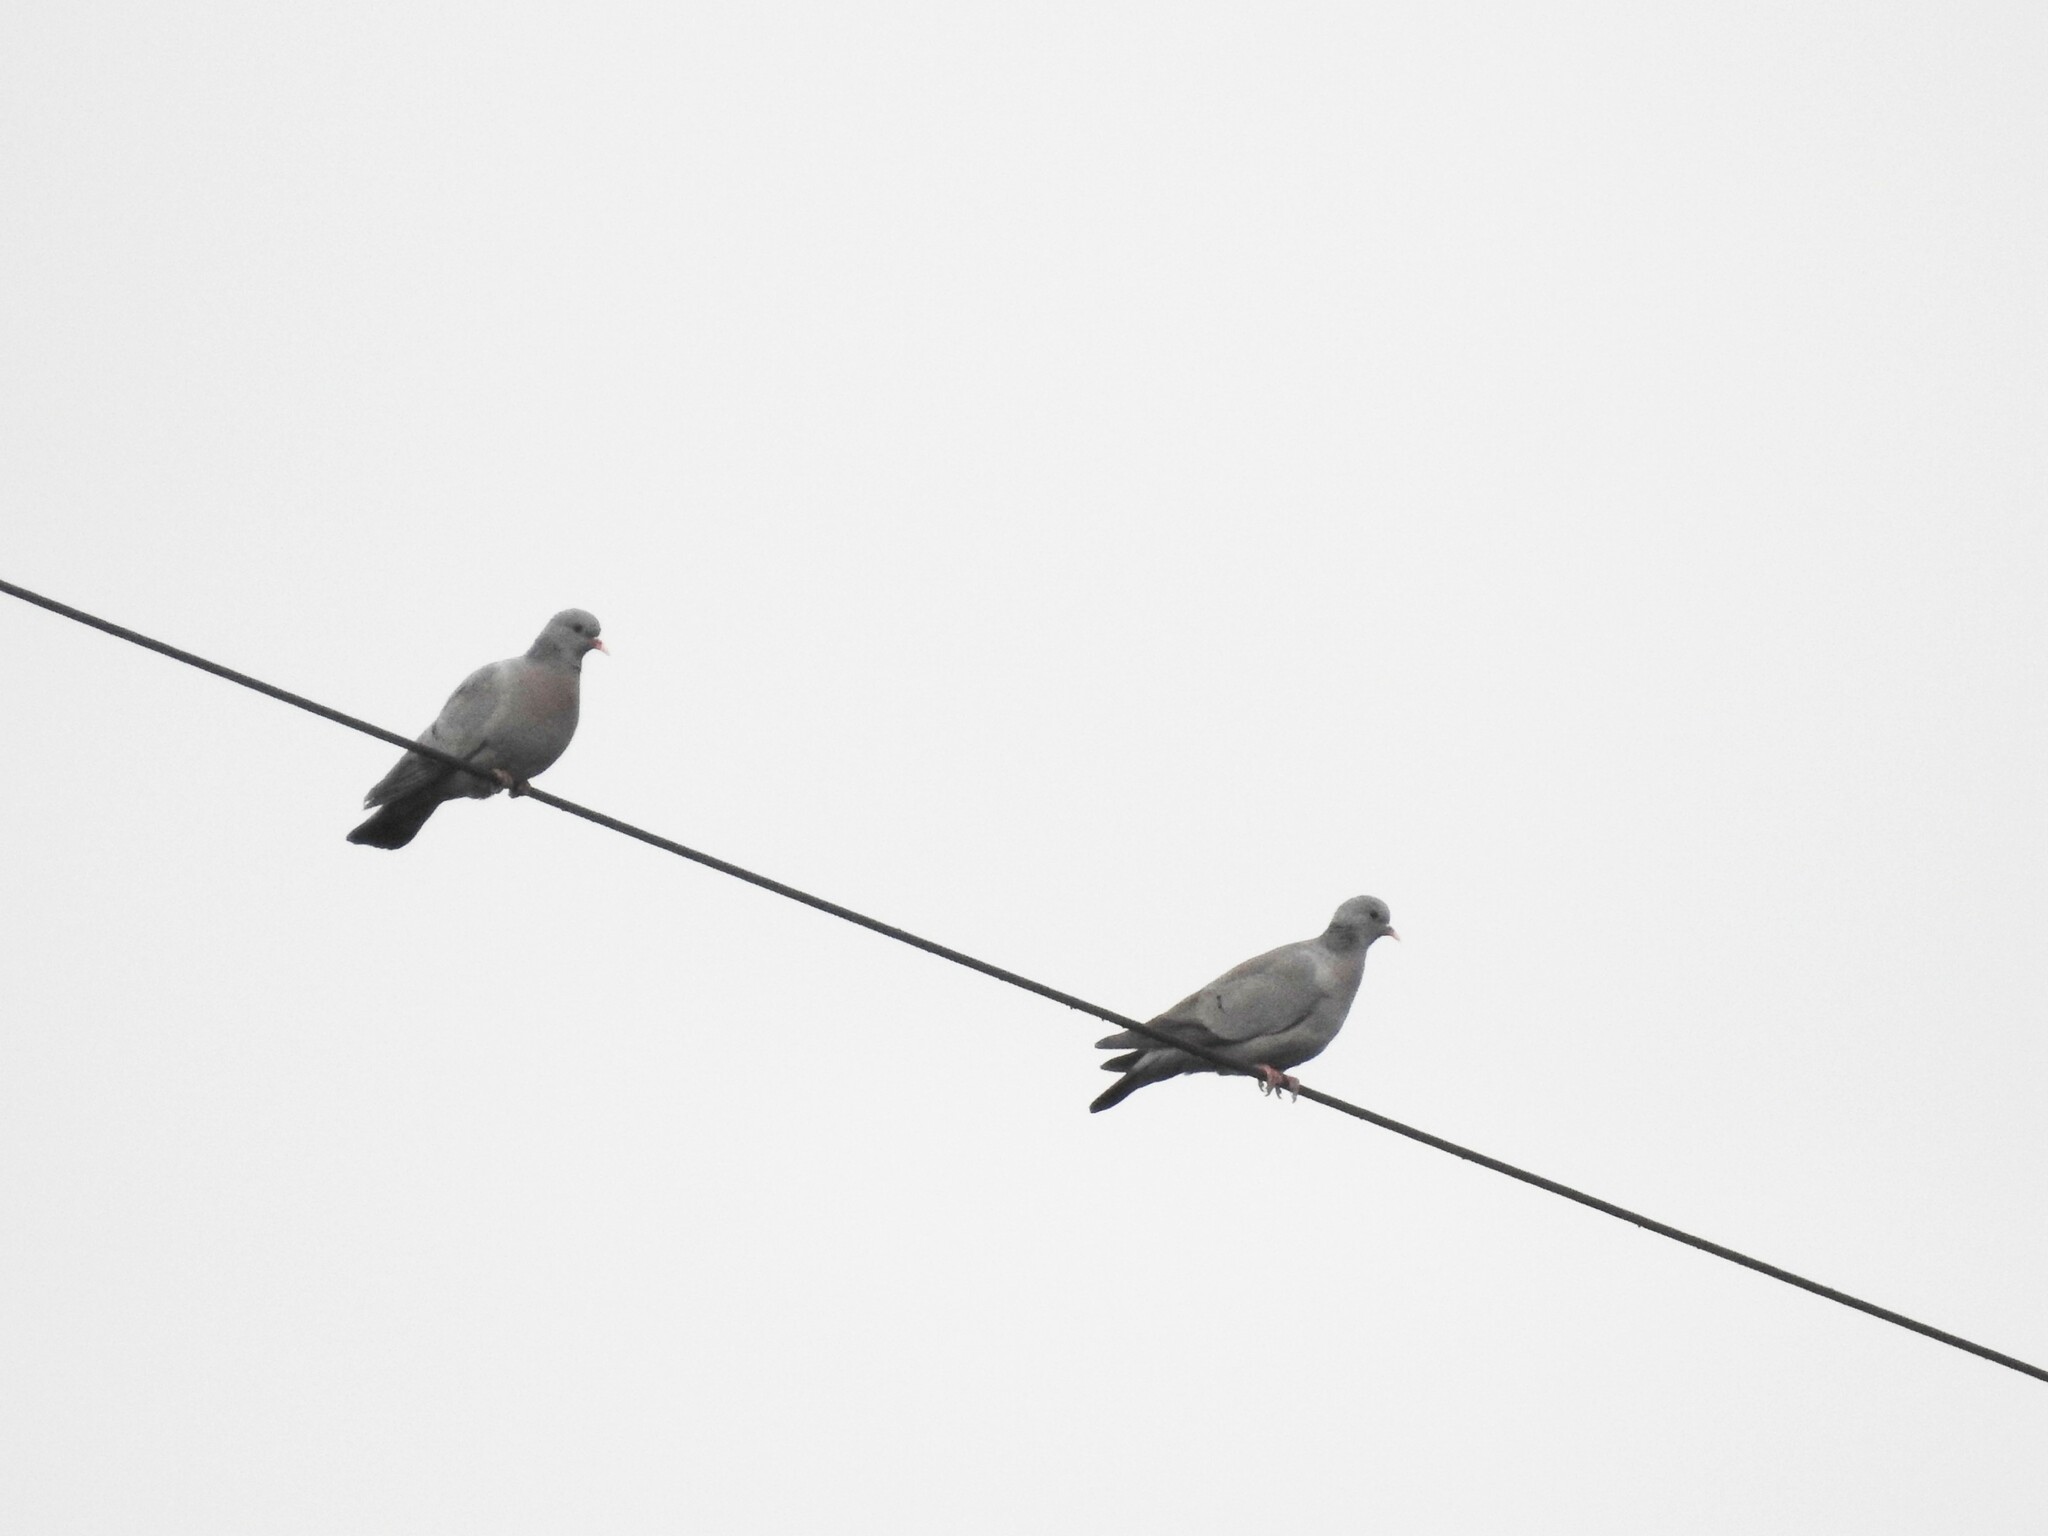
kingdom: Animalia
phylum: Chordata
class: Aves
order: Columbiformes
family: Columbidae
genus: Columba
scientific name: Columba oenas
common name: Stock dove
